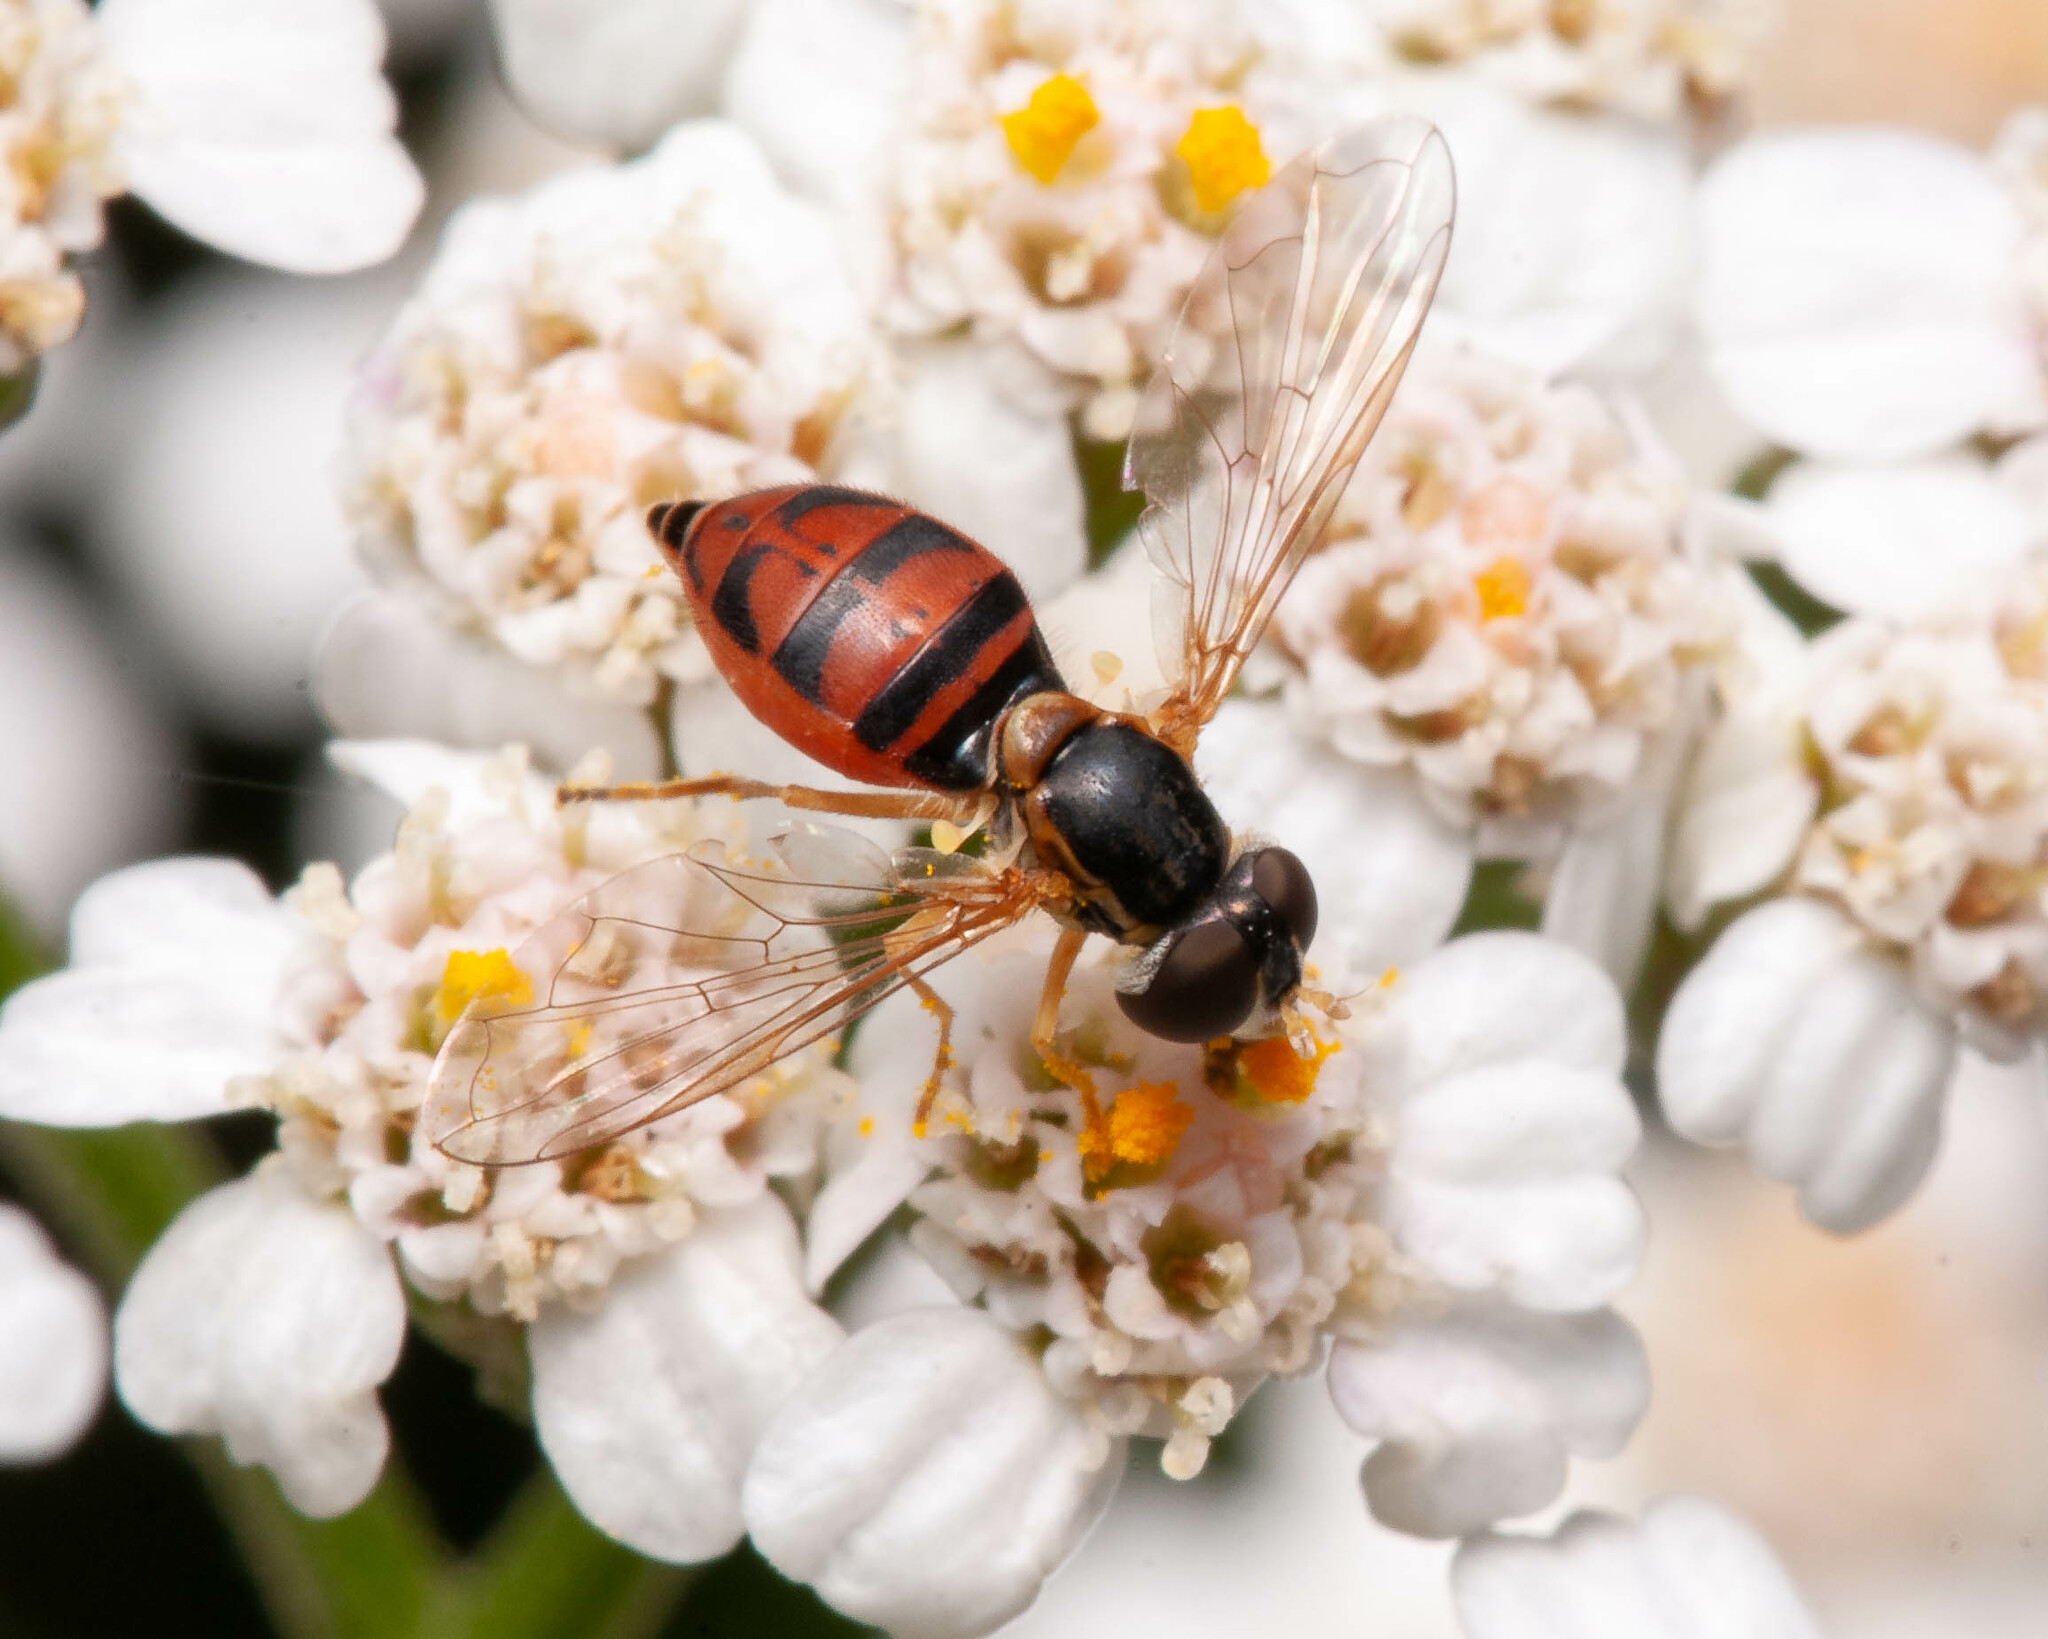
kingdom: Animalia
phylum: Arthropoda
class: Insecta
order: Diptera
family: Syrphidae
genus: Toxomerus
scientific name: Toxomerus marginatus
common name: Syrphid fly
